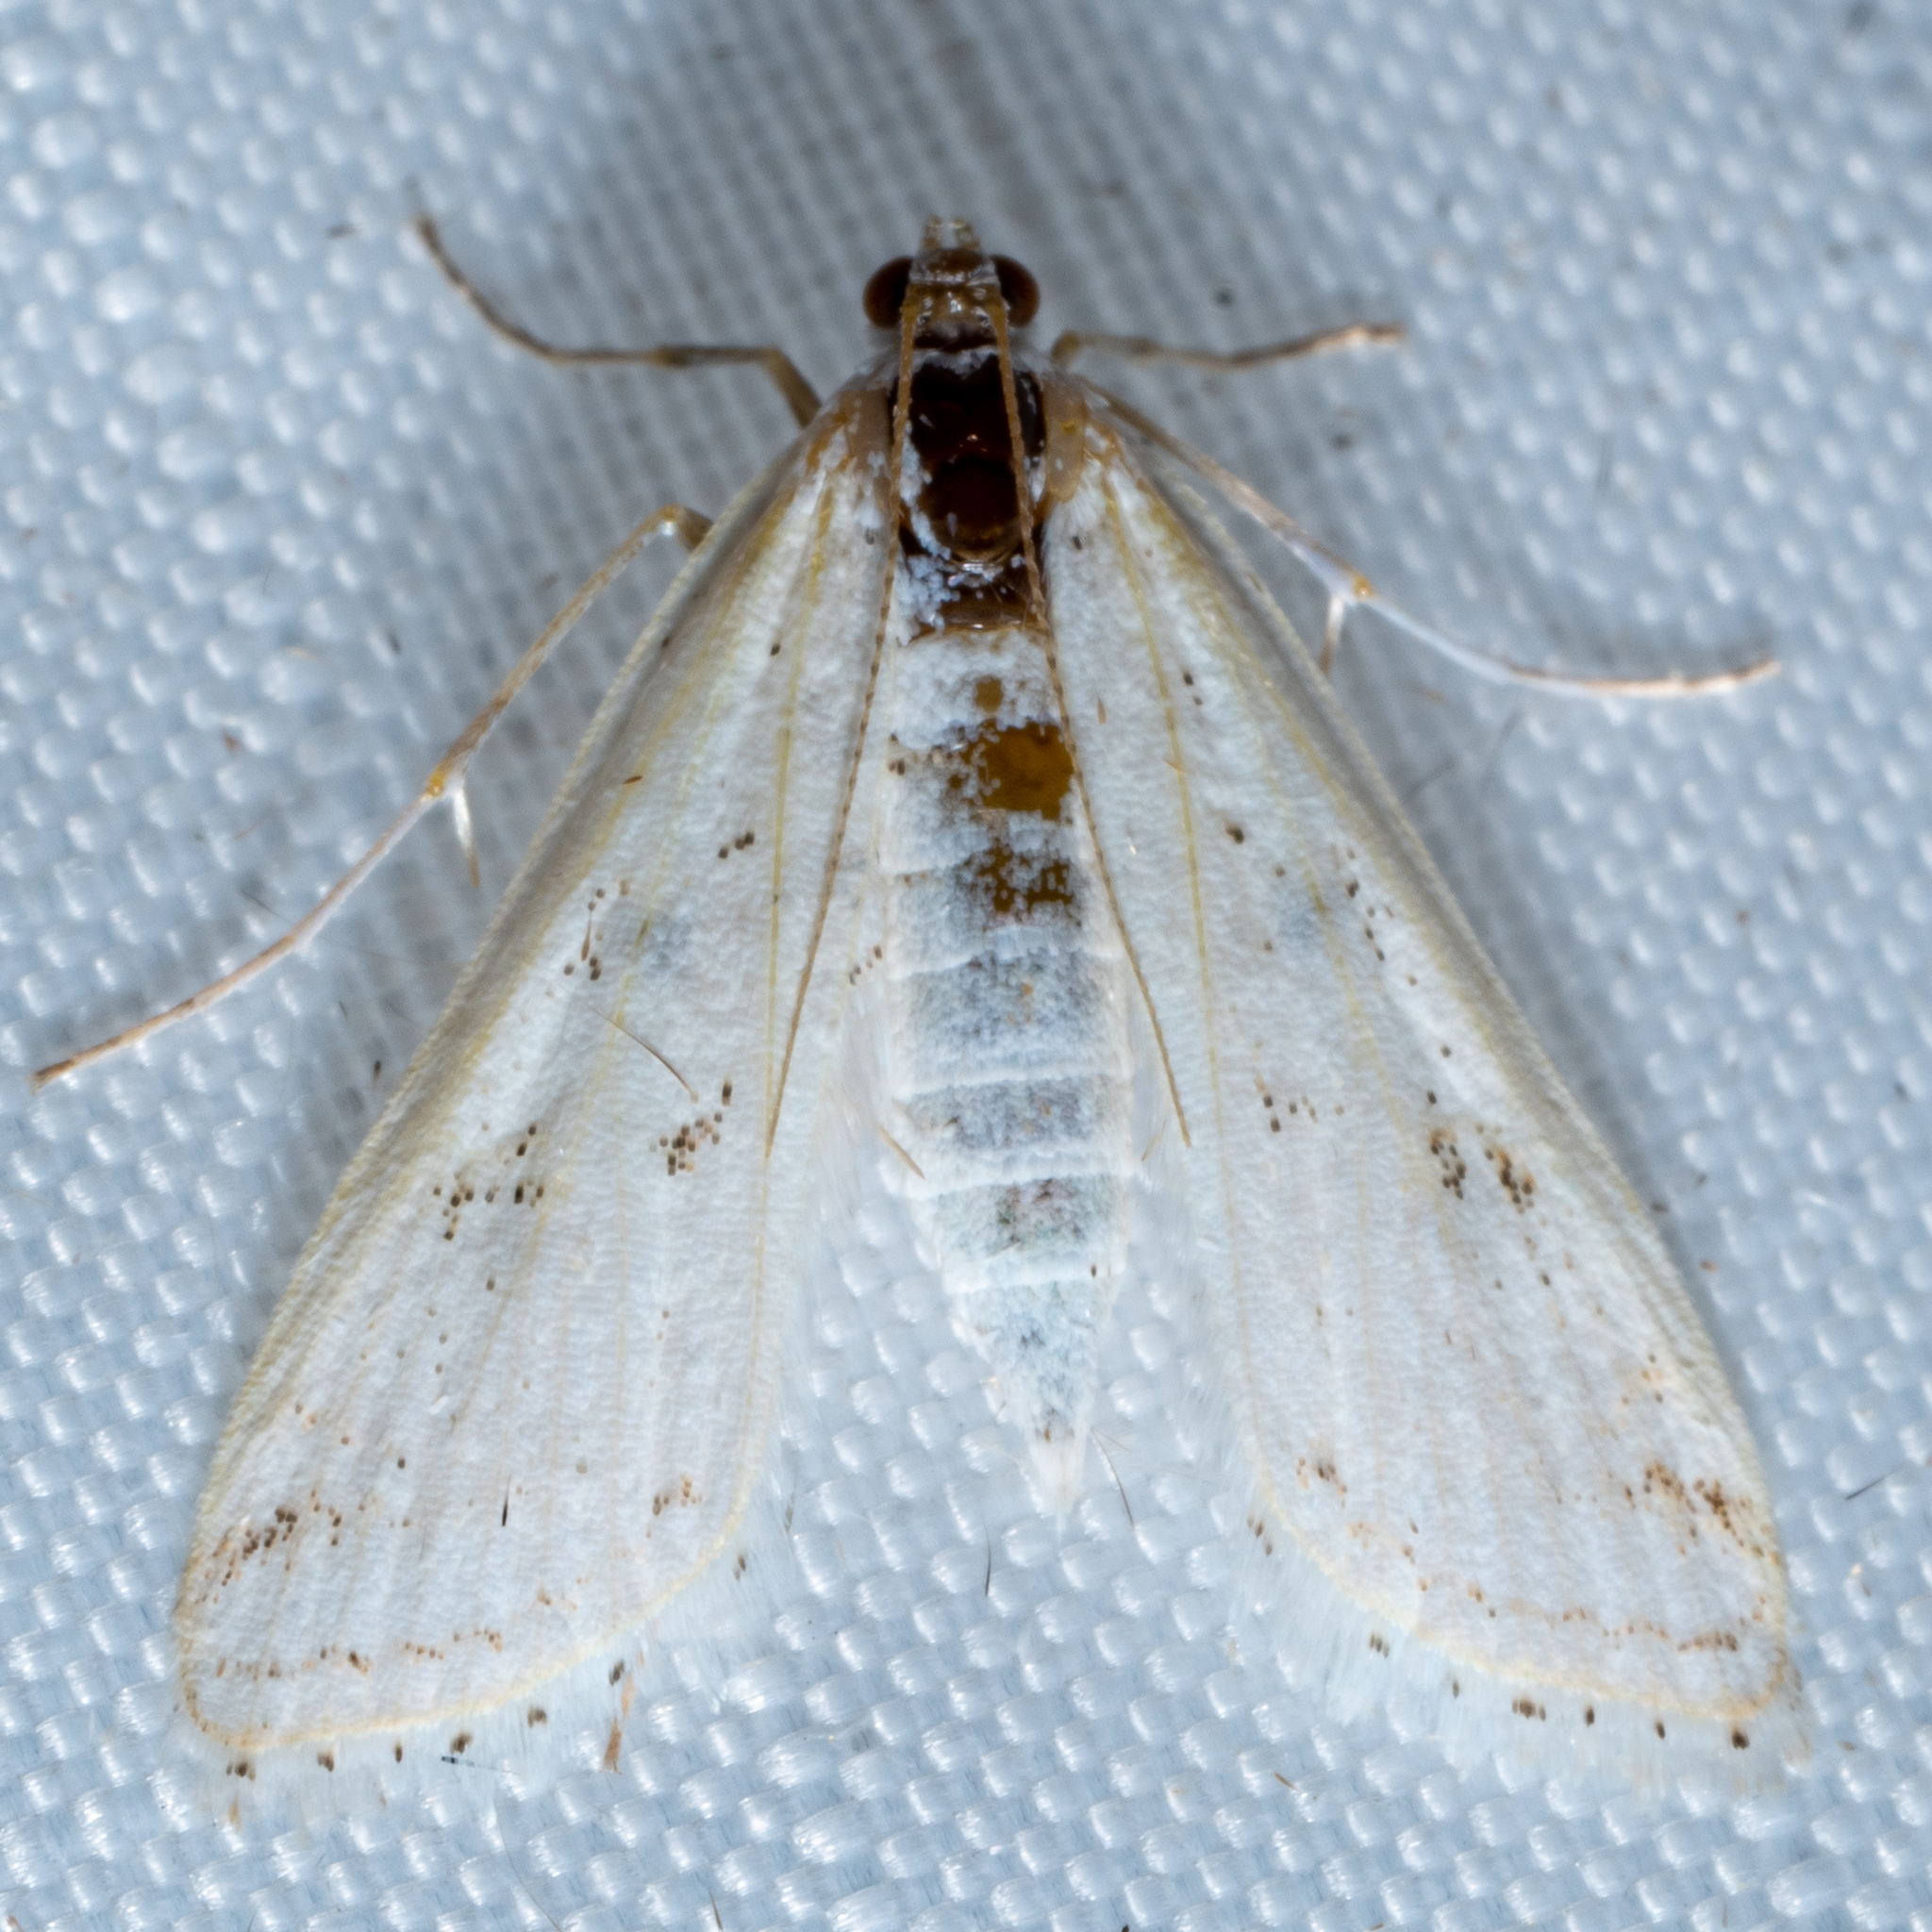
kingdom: Animalia
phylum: Arthropoda
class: Insecta
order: Lepidoptera
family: Crambidae
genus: Parapoynx
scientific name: Parapoynx allionealis
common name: Bladderwort casemaker
